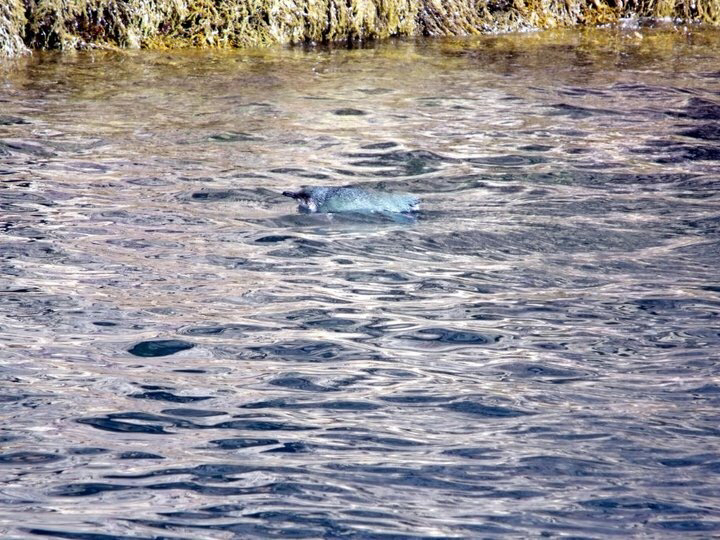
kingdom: Animalia
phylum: Chordata
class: Aves
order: Sphenisciformes
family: Spheniscidae
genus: Eudyptula
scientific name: Eudyptula minor
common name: Little penguin
